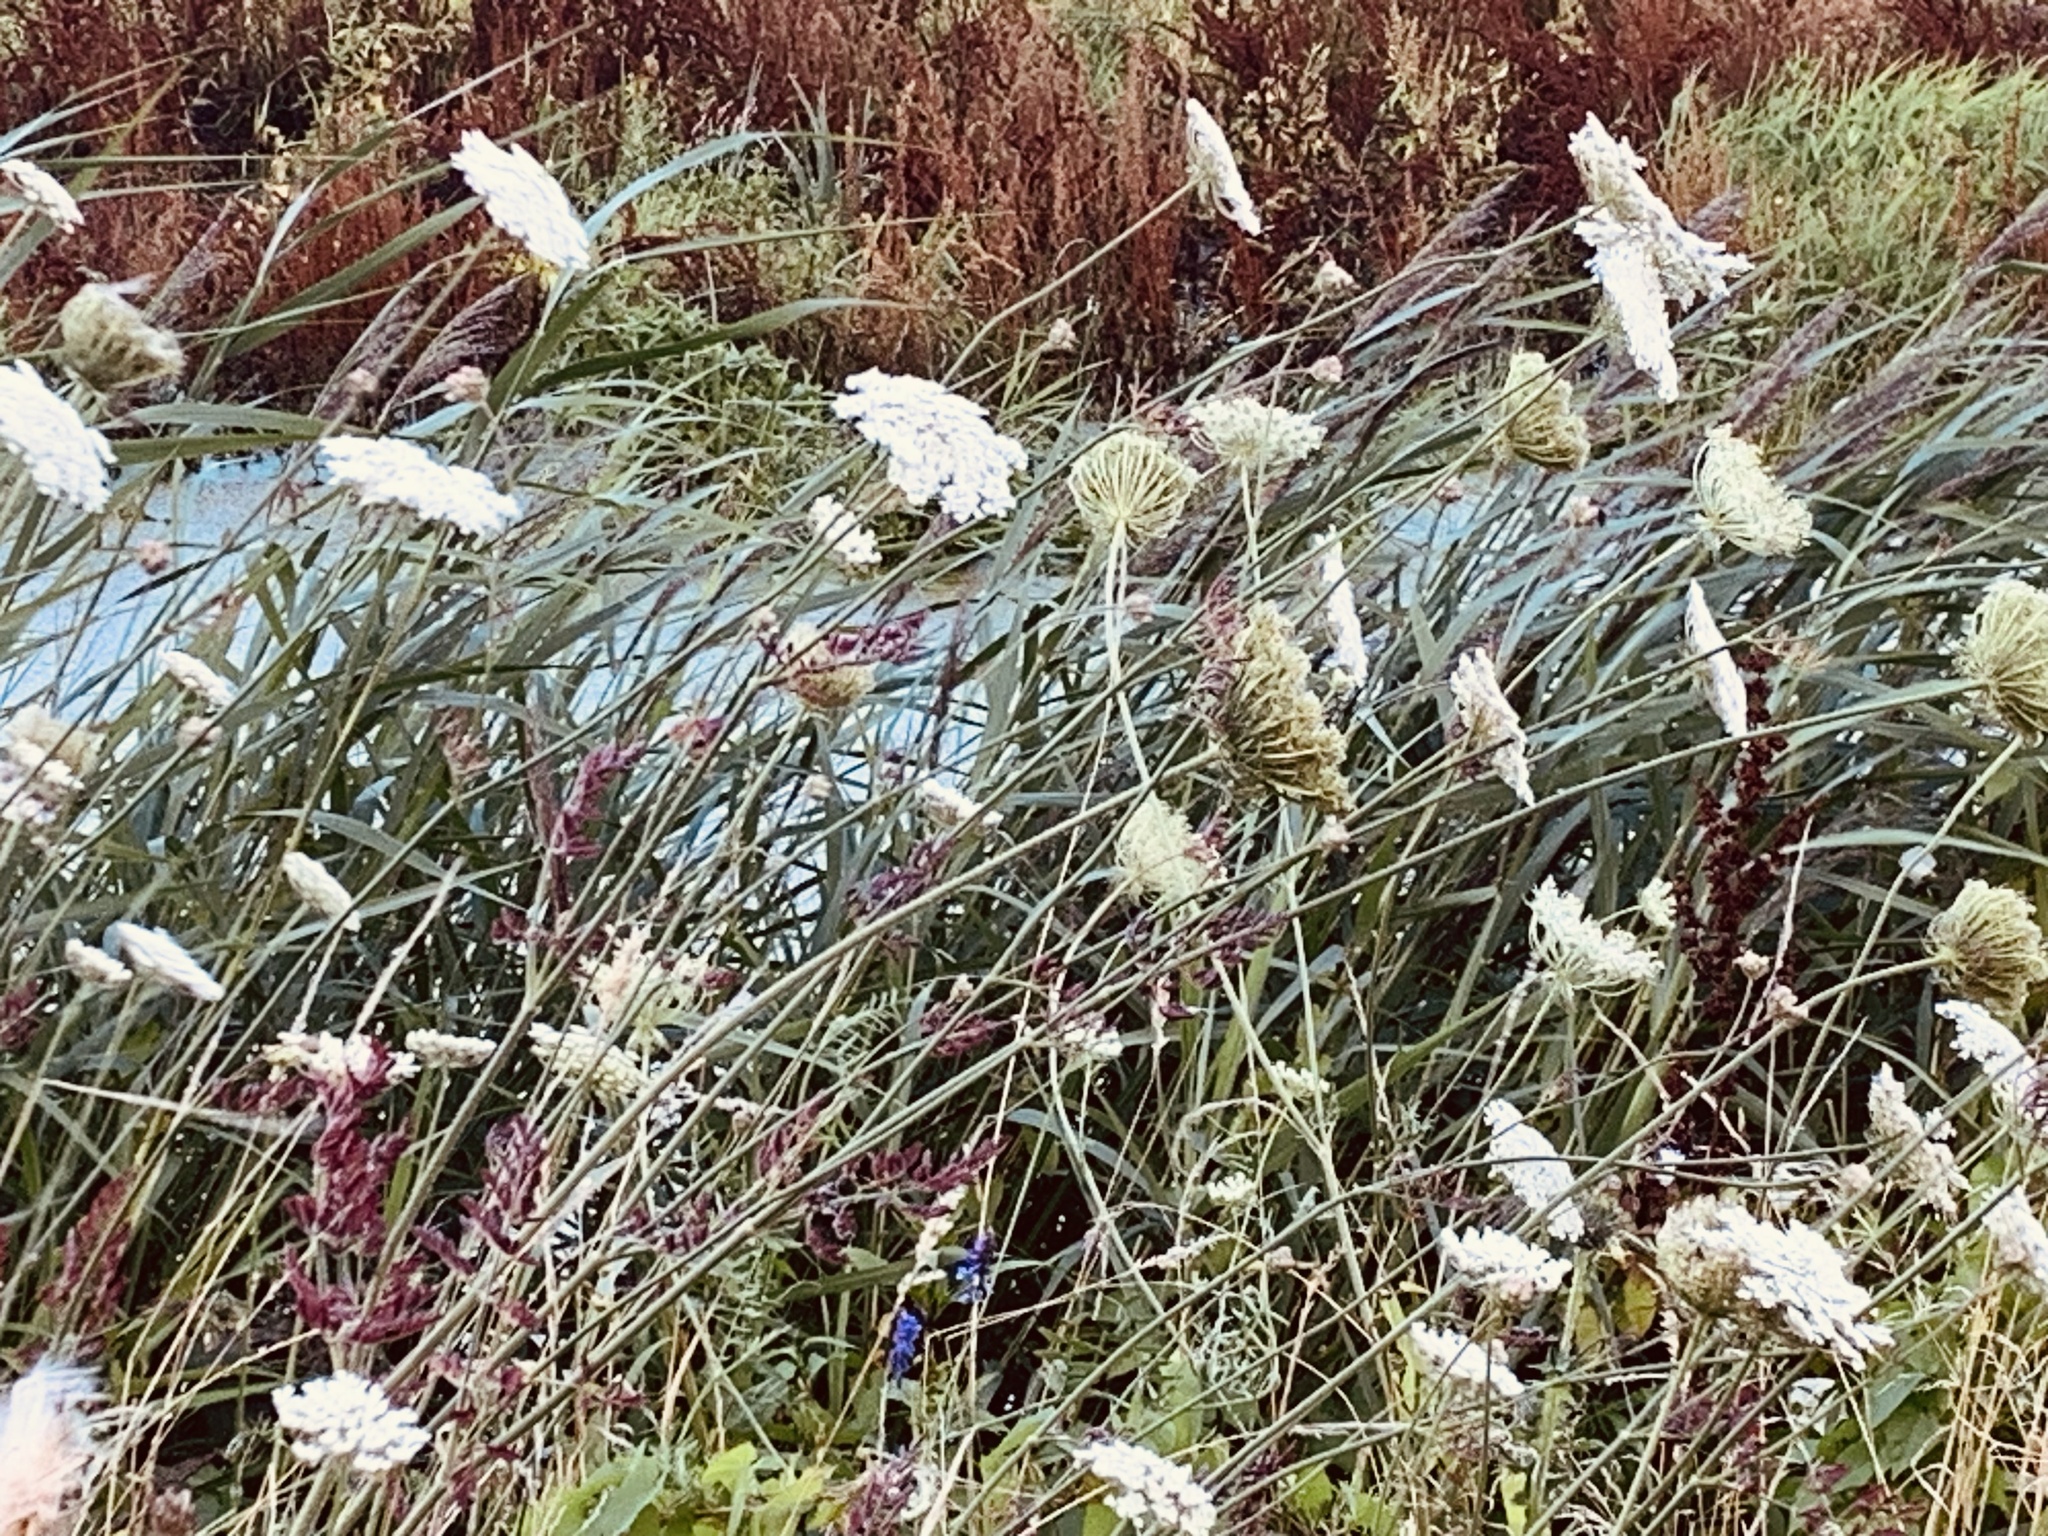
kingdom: Plantae
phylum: Tracheophyta
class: Magnoliopsida
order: Apiales
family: Apiaceae
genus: Daucus
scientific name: Daucus carota
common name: Wild carrot
